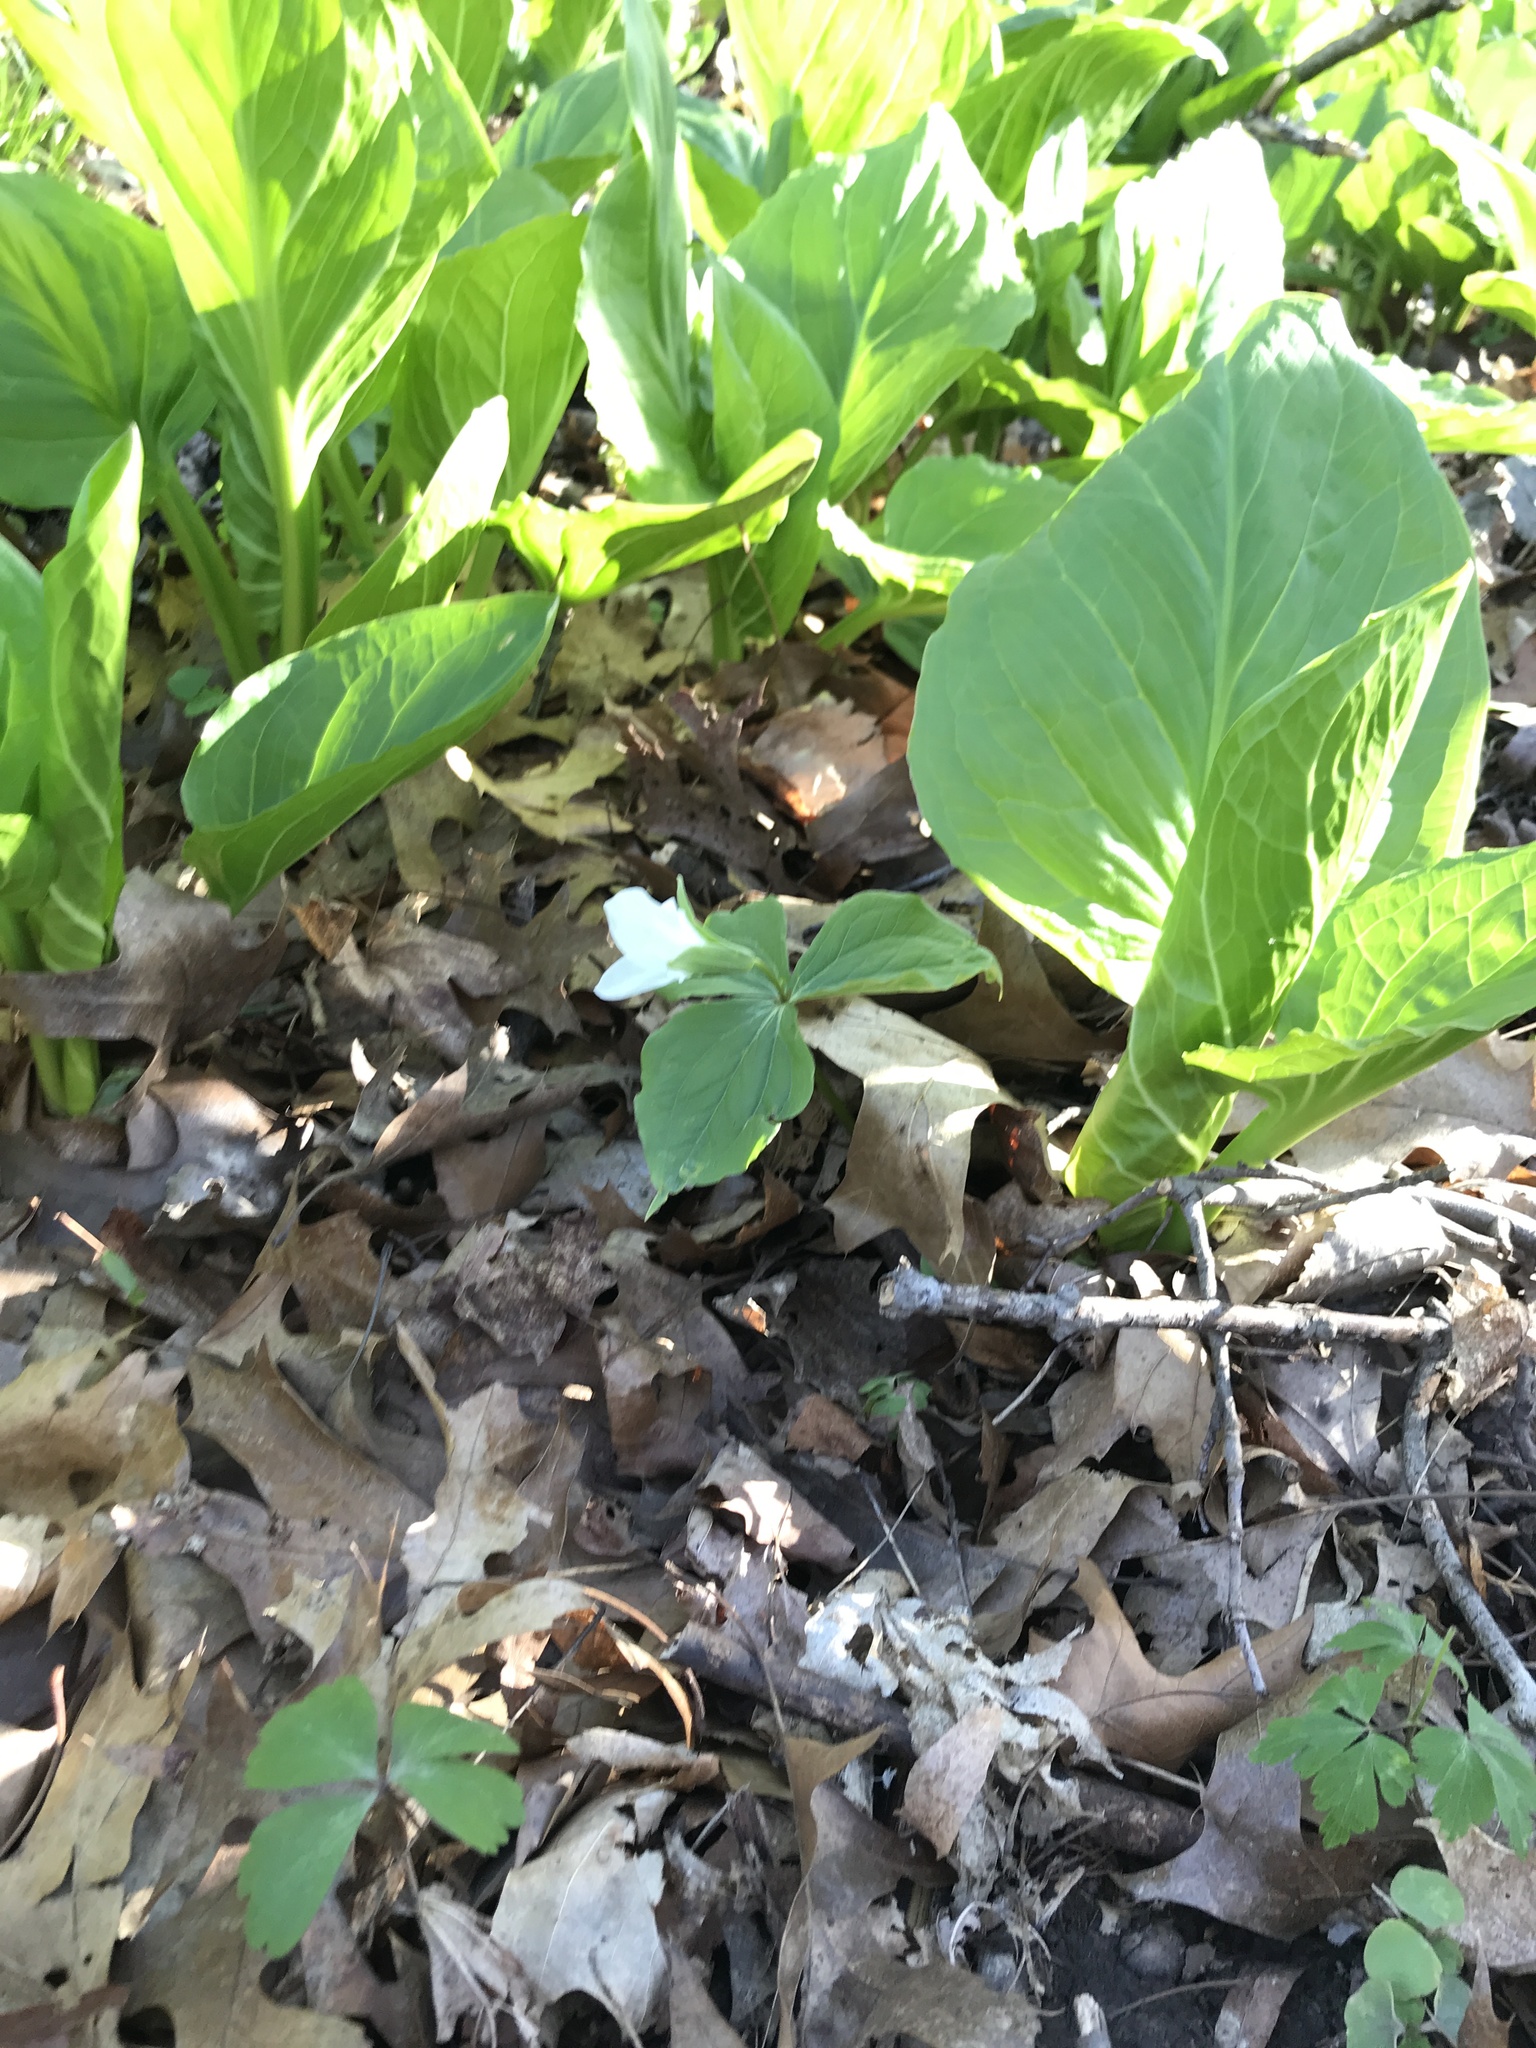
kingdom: Plantae
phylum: Tracheophyta
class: Liliopsida
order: Liliales
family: Melanthiaceae
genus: Trillium
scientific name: Trillium grandiflorum
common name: Great white trillium
